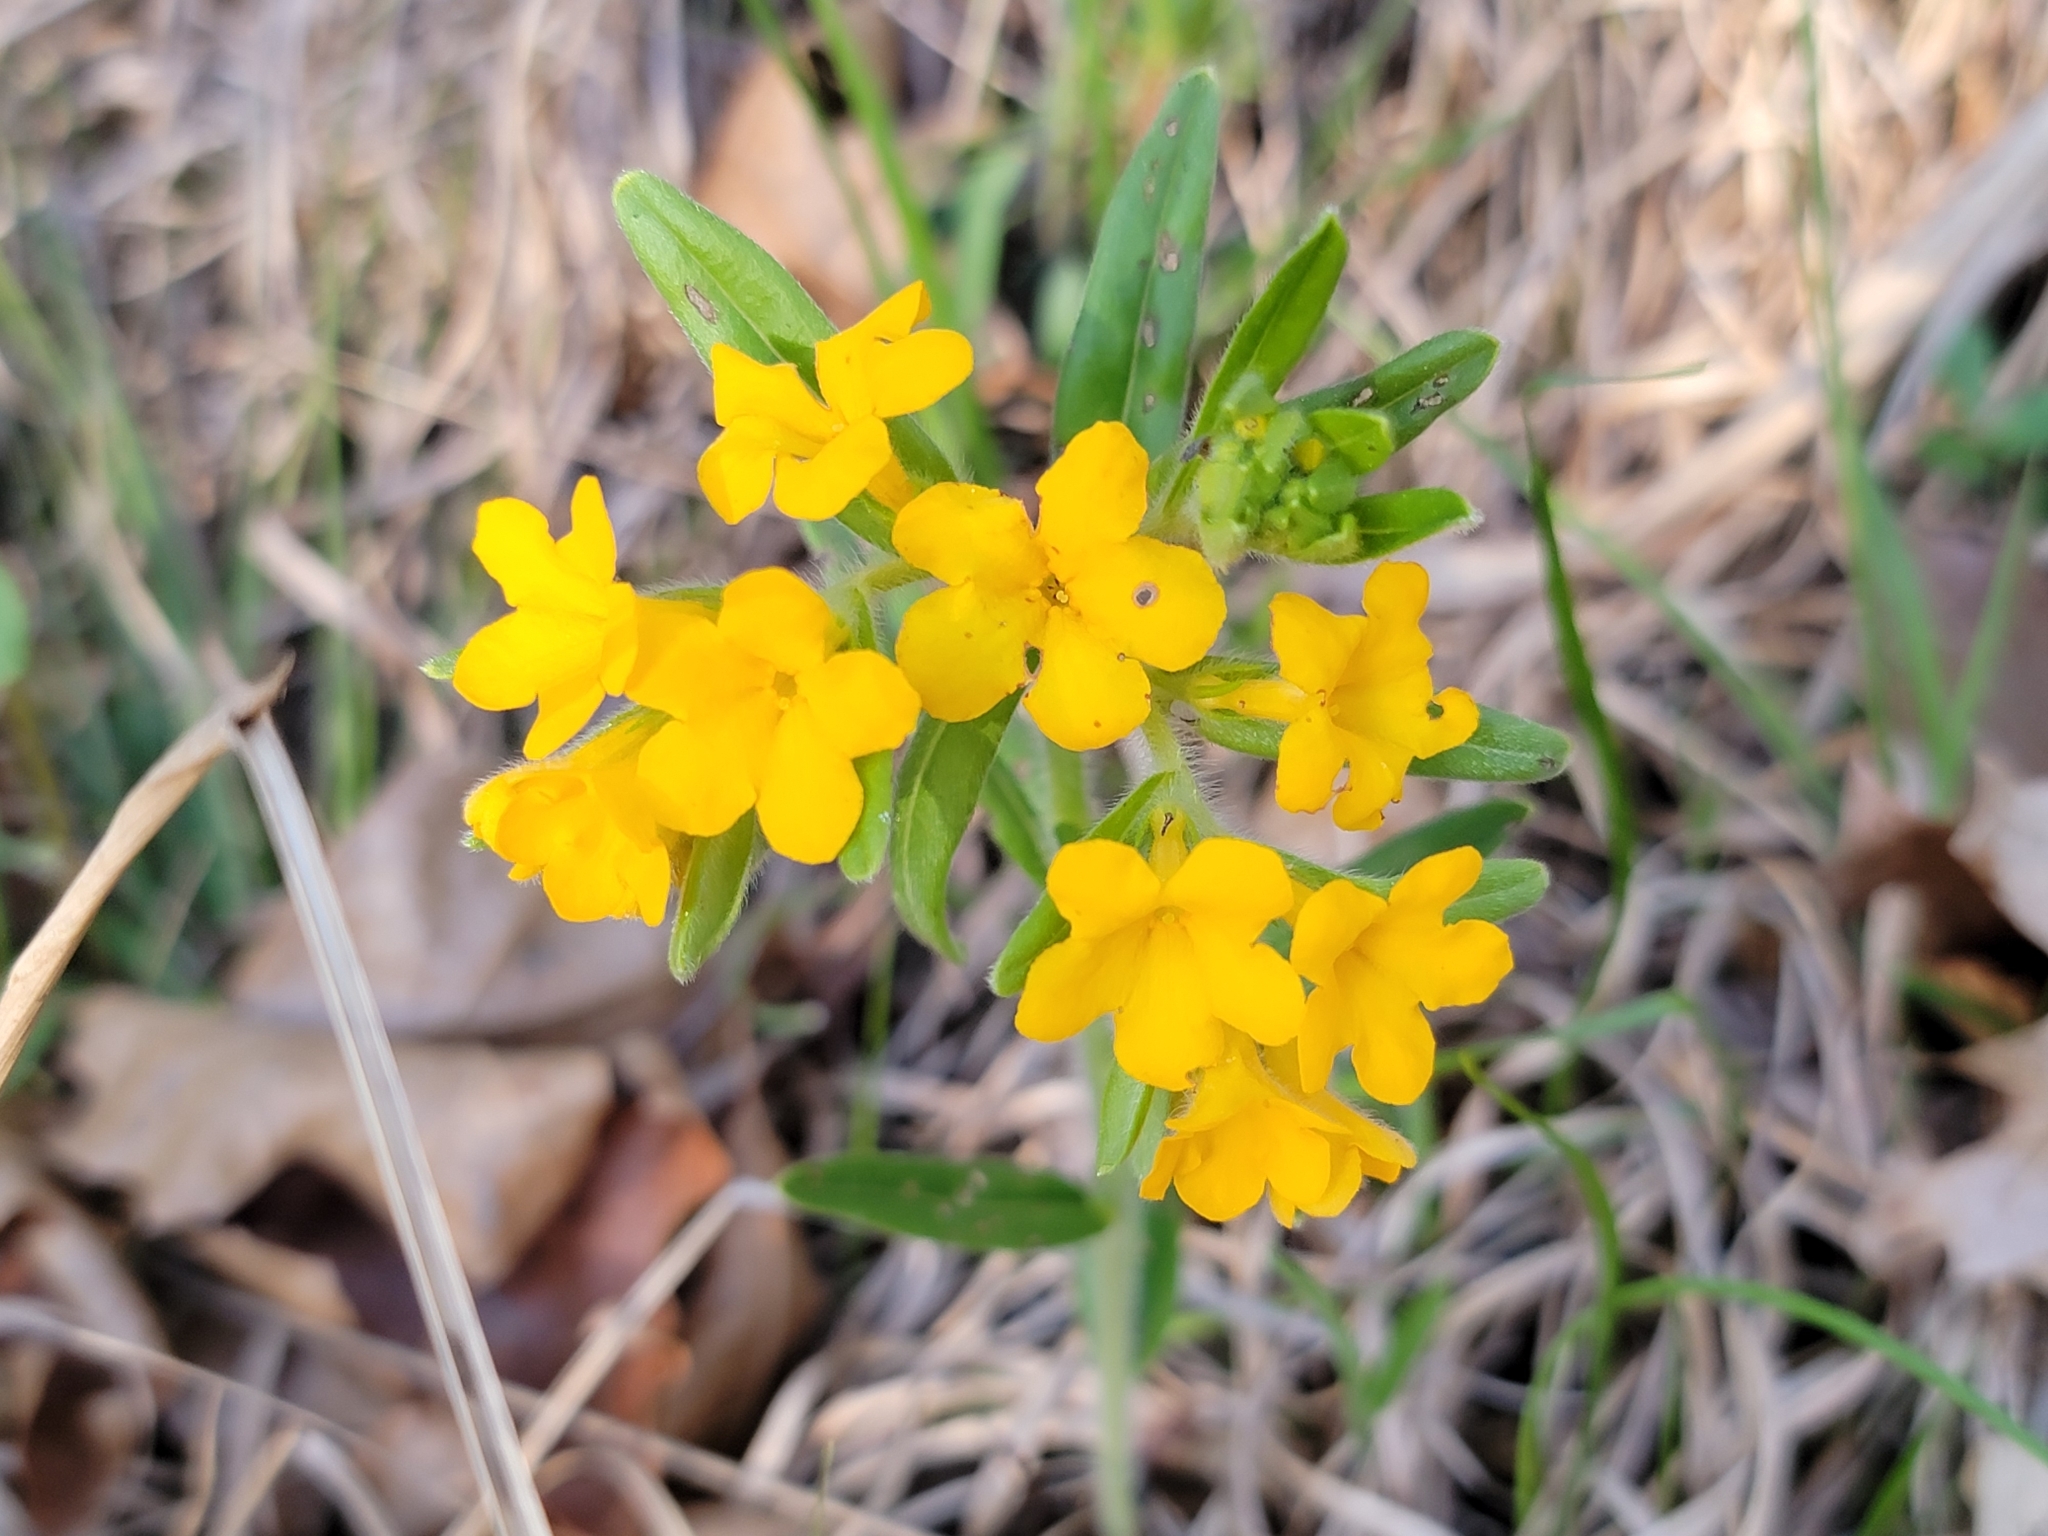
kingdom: Plantae
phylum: Tracheophyta
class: Magnoliopsida
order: Boraginales
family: Boraginaceae
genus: Lithospermum
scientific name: Lithospermum canescens
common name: Hoary puccoon
